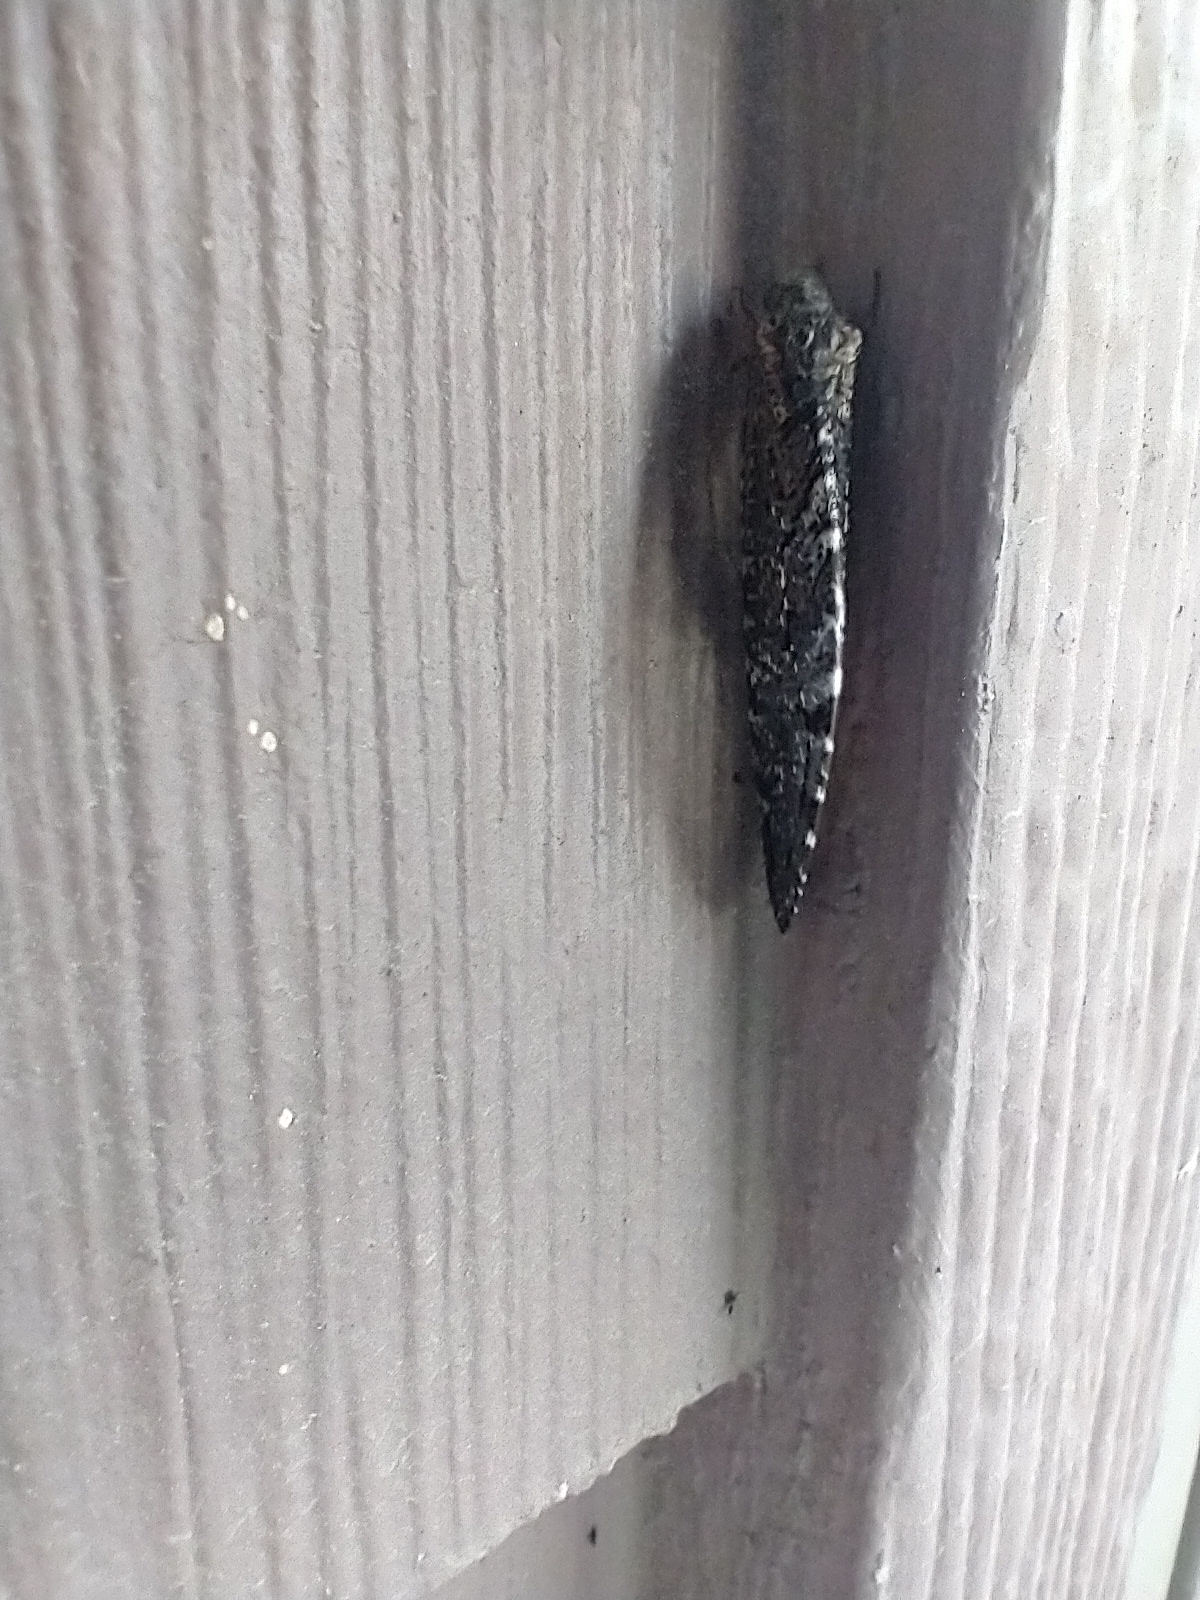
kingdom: Animalia
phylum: Arthropoda
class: Insecta
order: Neuroptera
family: Ithonidae
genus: Polystoechotes
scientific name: Polystoechotes punctata
